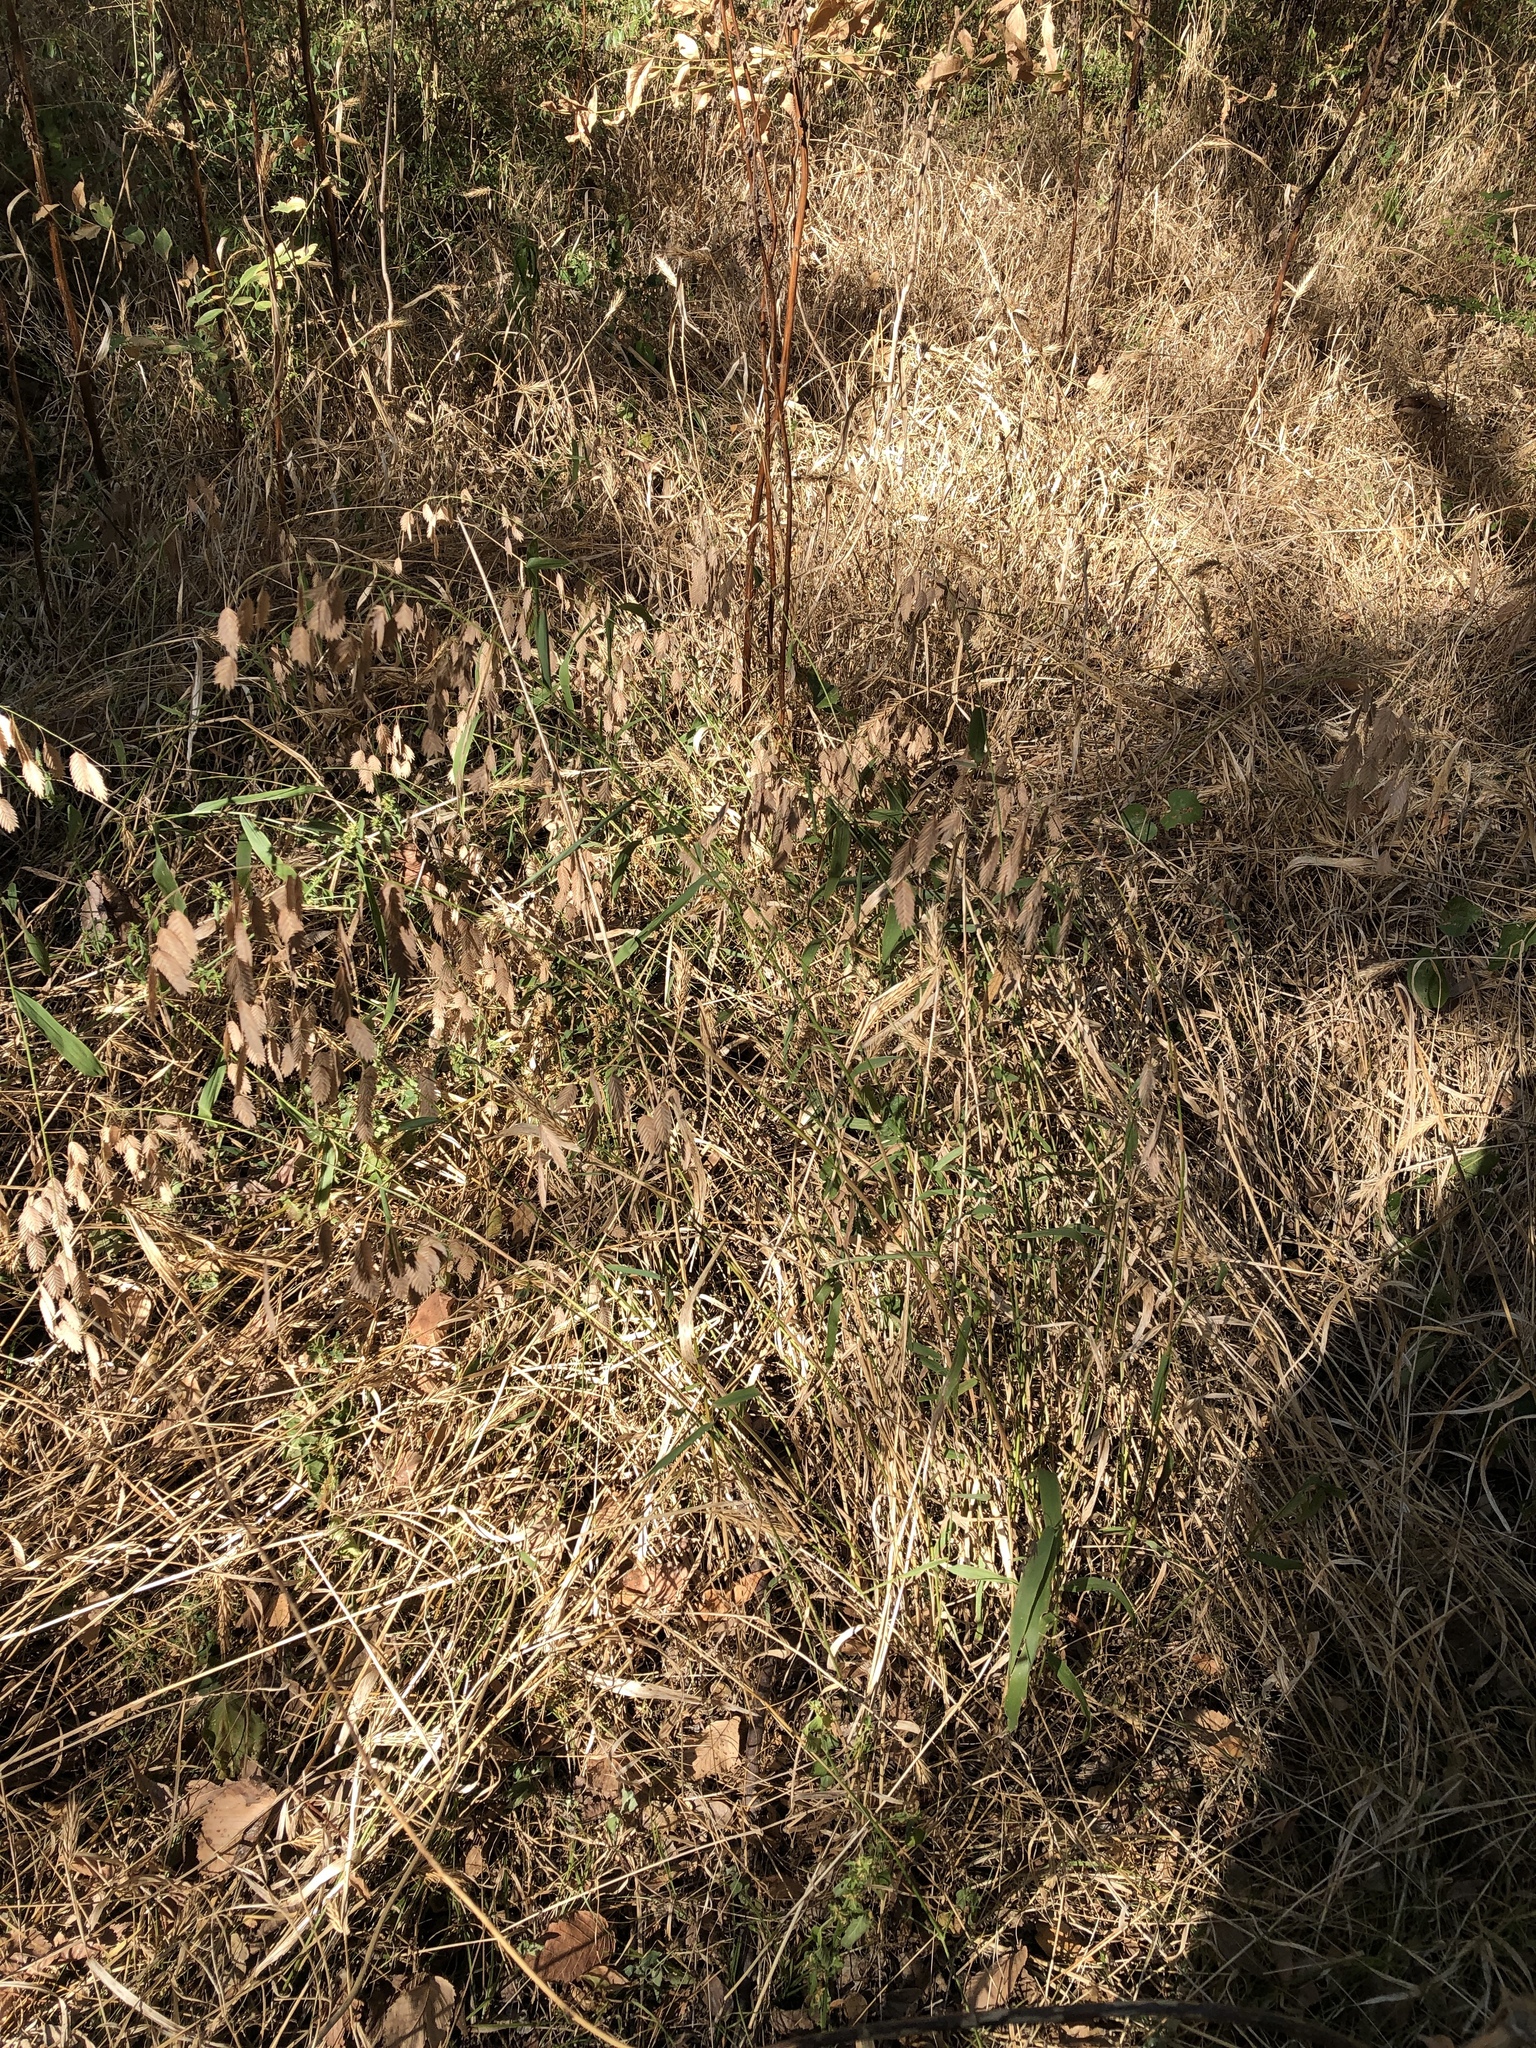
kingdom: Plantae
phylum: Tracheophyta
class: Liliopsida
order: Poales
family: Poaceae
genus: Chasmanthium
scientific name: Chasmanthium latifolium
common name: Broad-leaved chasmanthium
